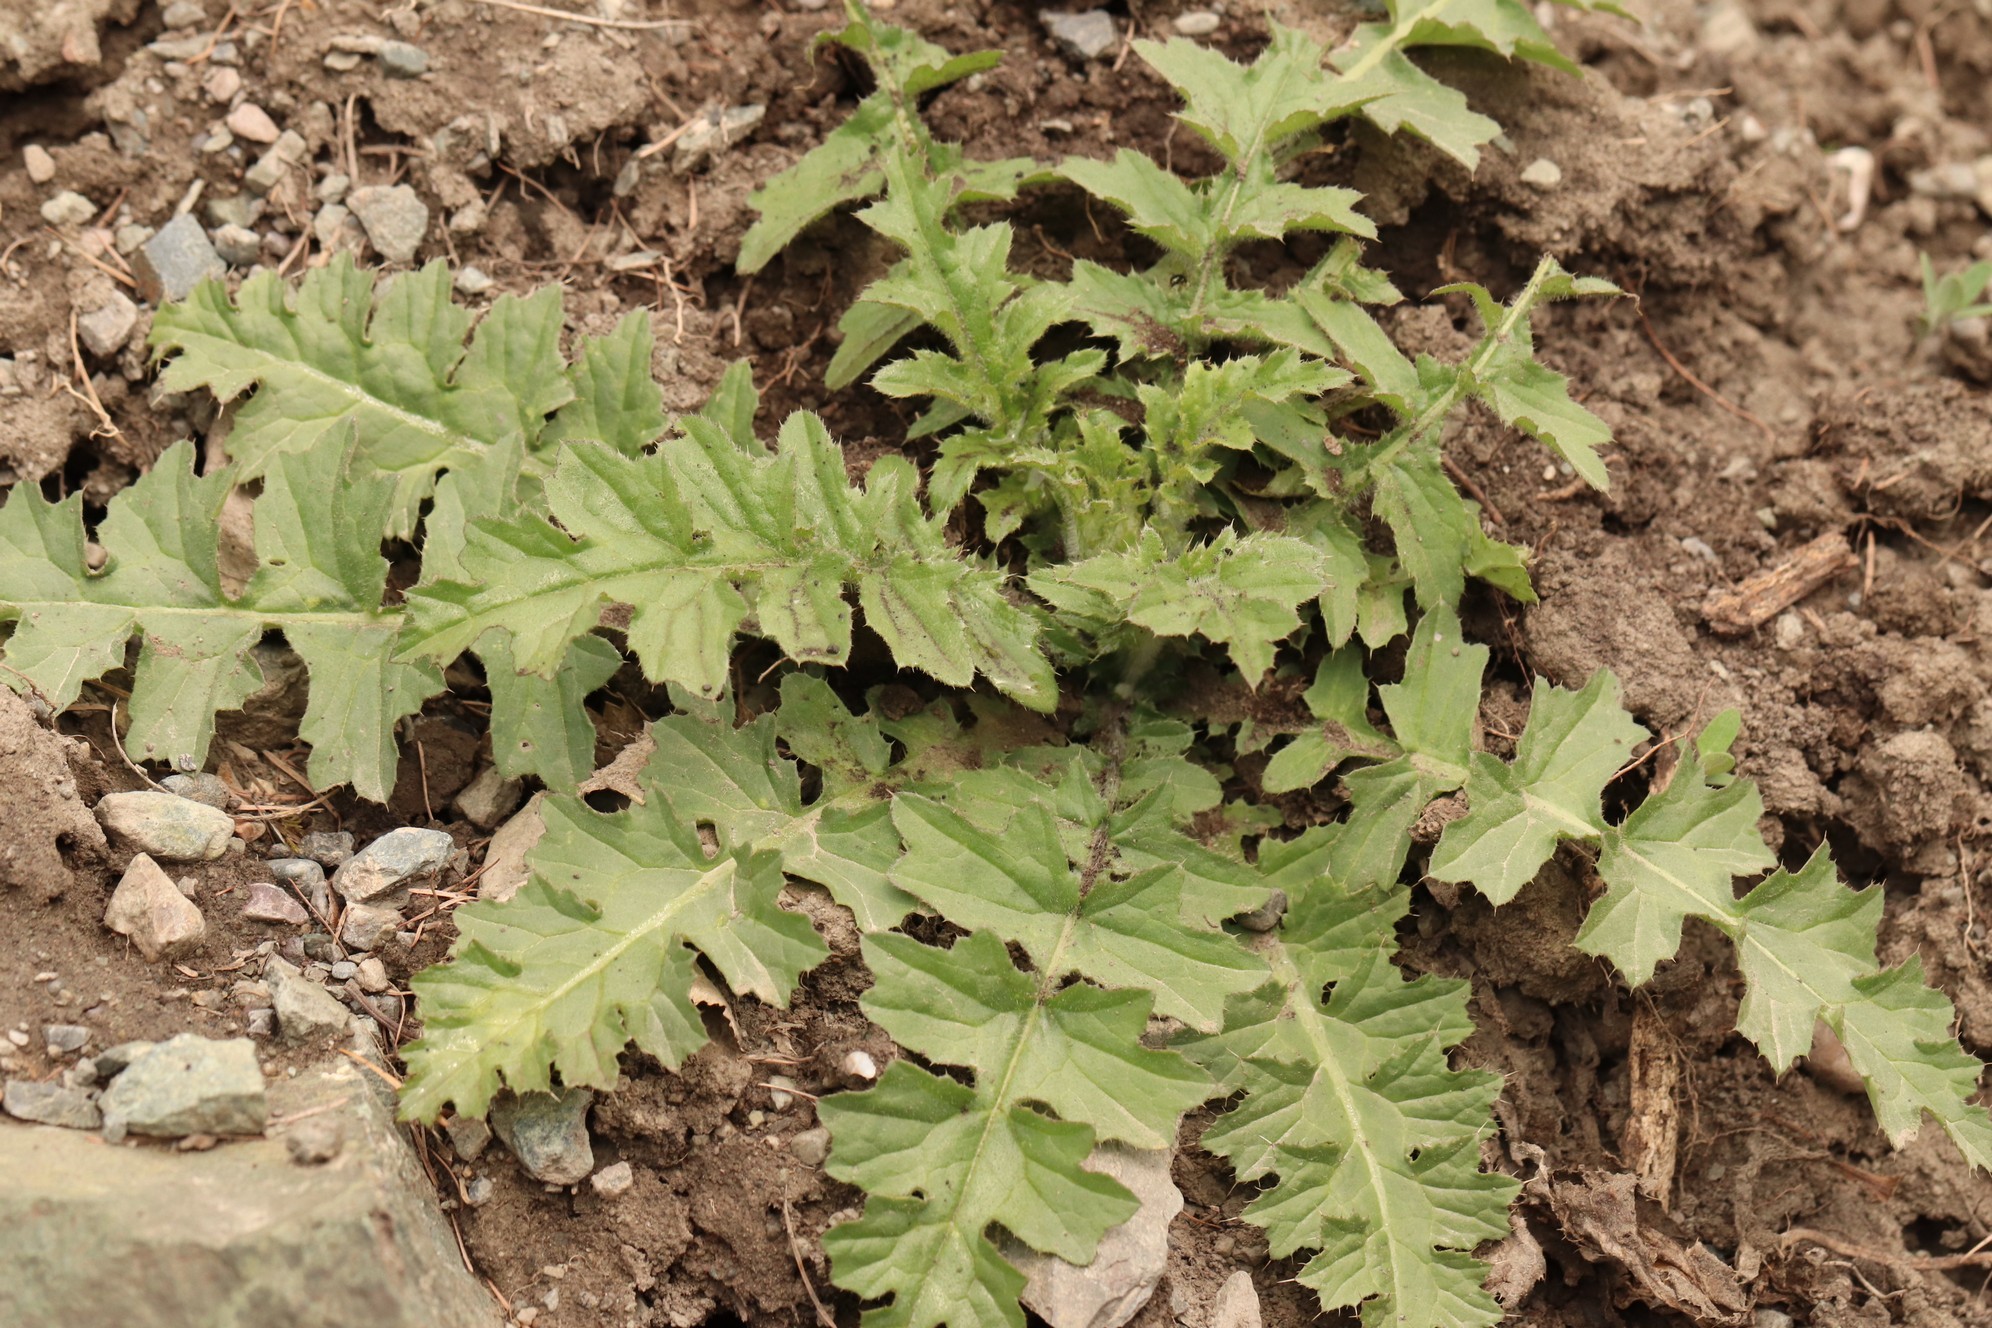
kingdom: Plantae
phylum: Tracheophyta
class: Magnoliopsida
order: Asterales
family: Asteraceae
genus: Carduus
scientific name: Carduus crispus
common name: Welted thistle
